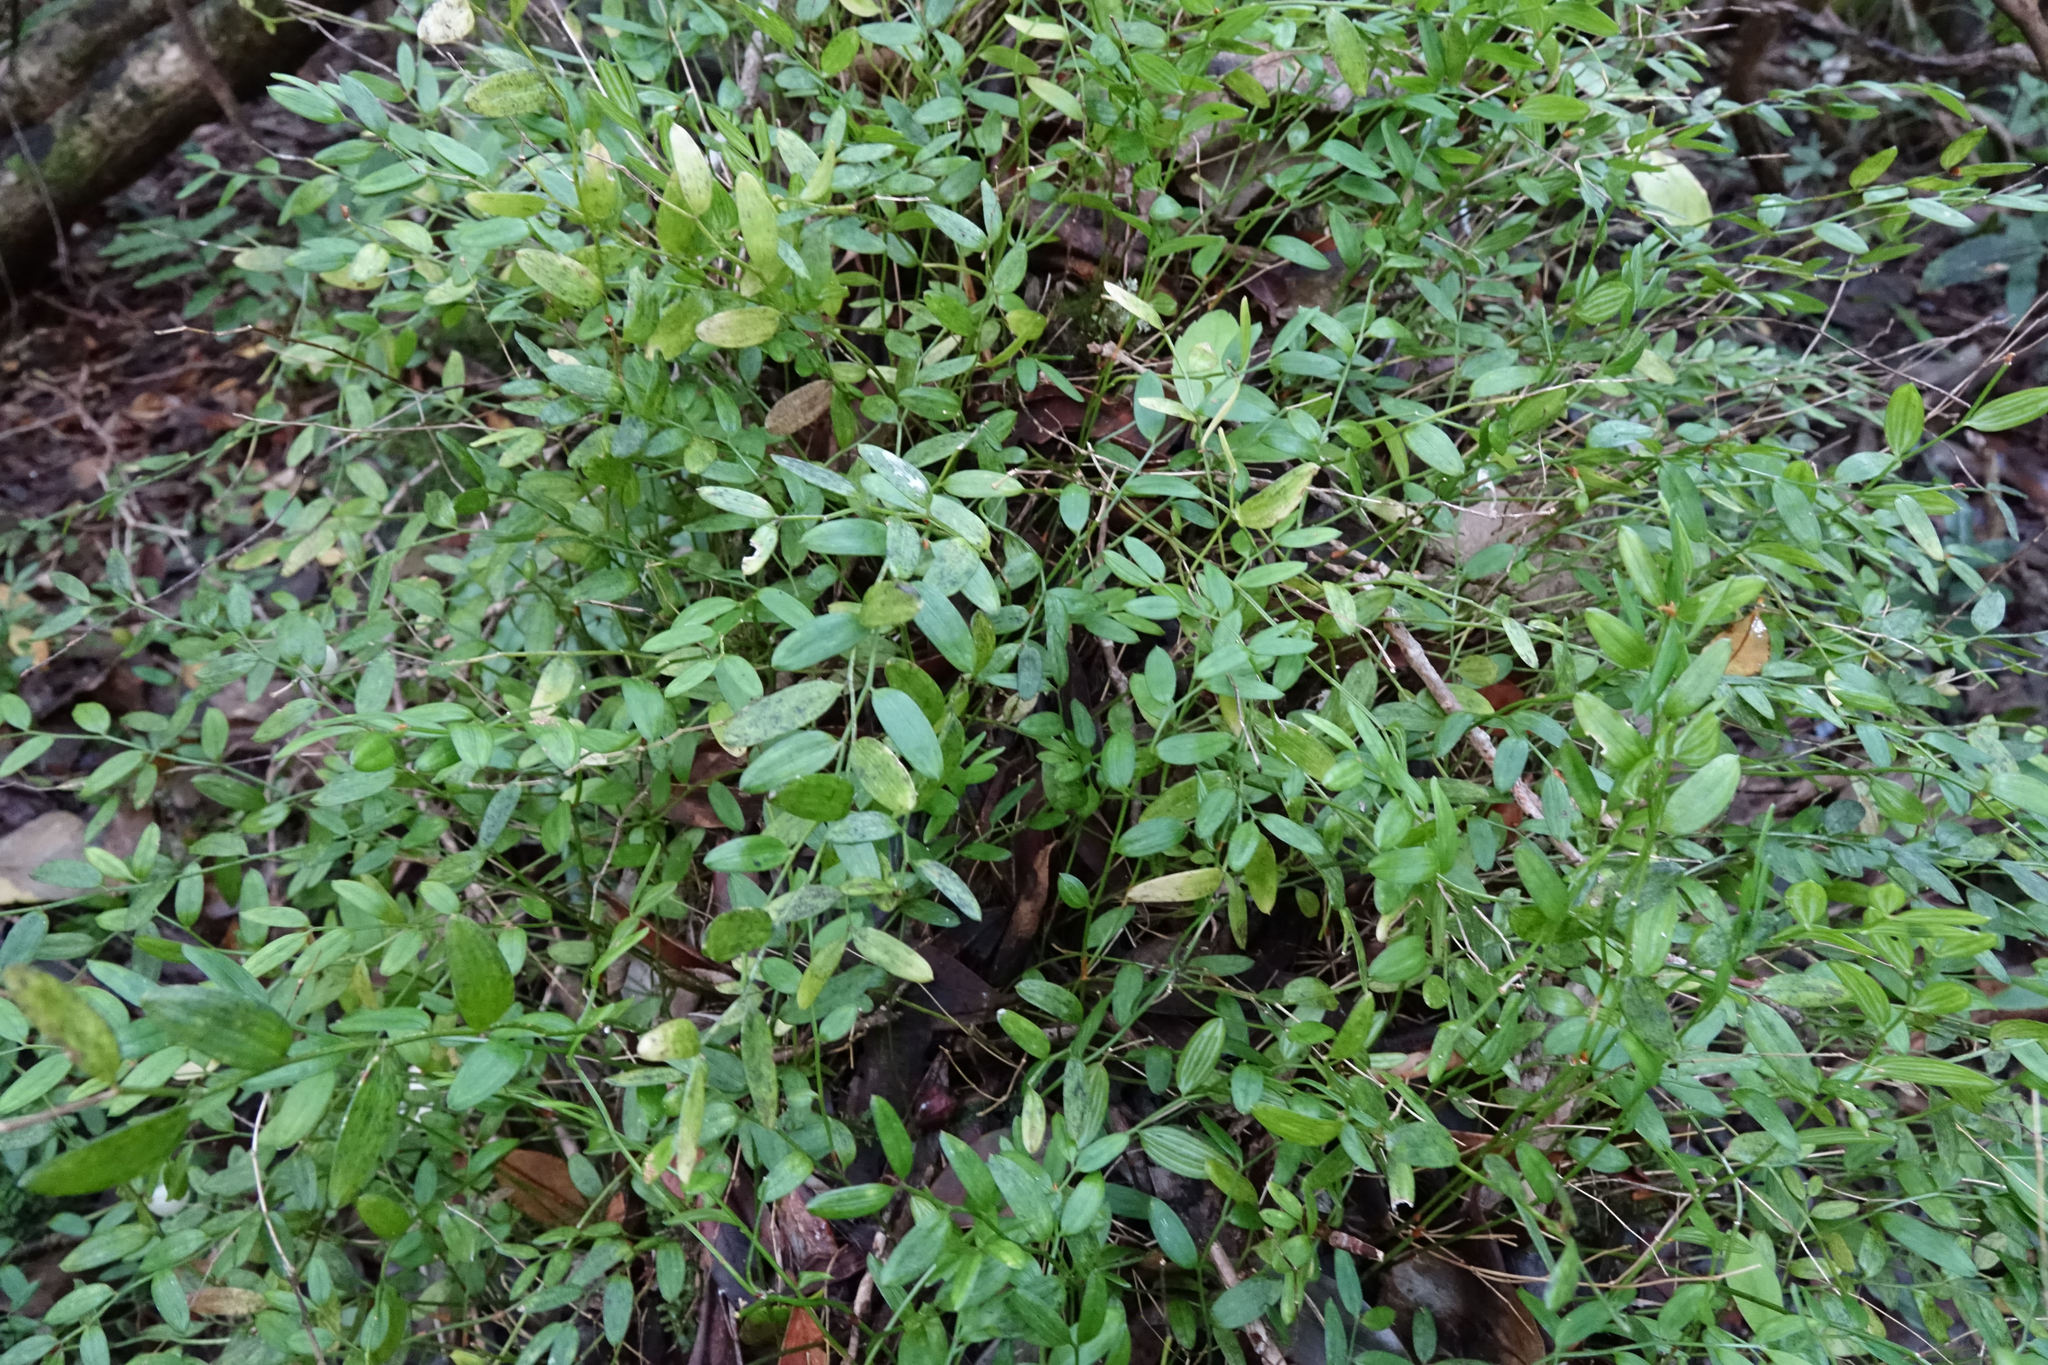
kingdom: Plantae
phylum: Tracheophyta
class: Liliopsida
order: Liliales
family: Alstroemeriaceae
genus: Luzuriaga
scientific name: Luzuriaga parviflora
